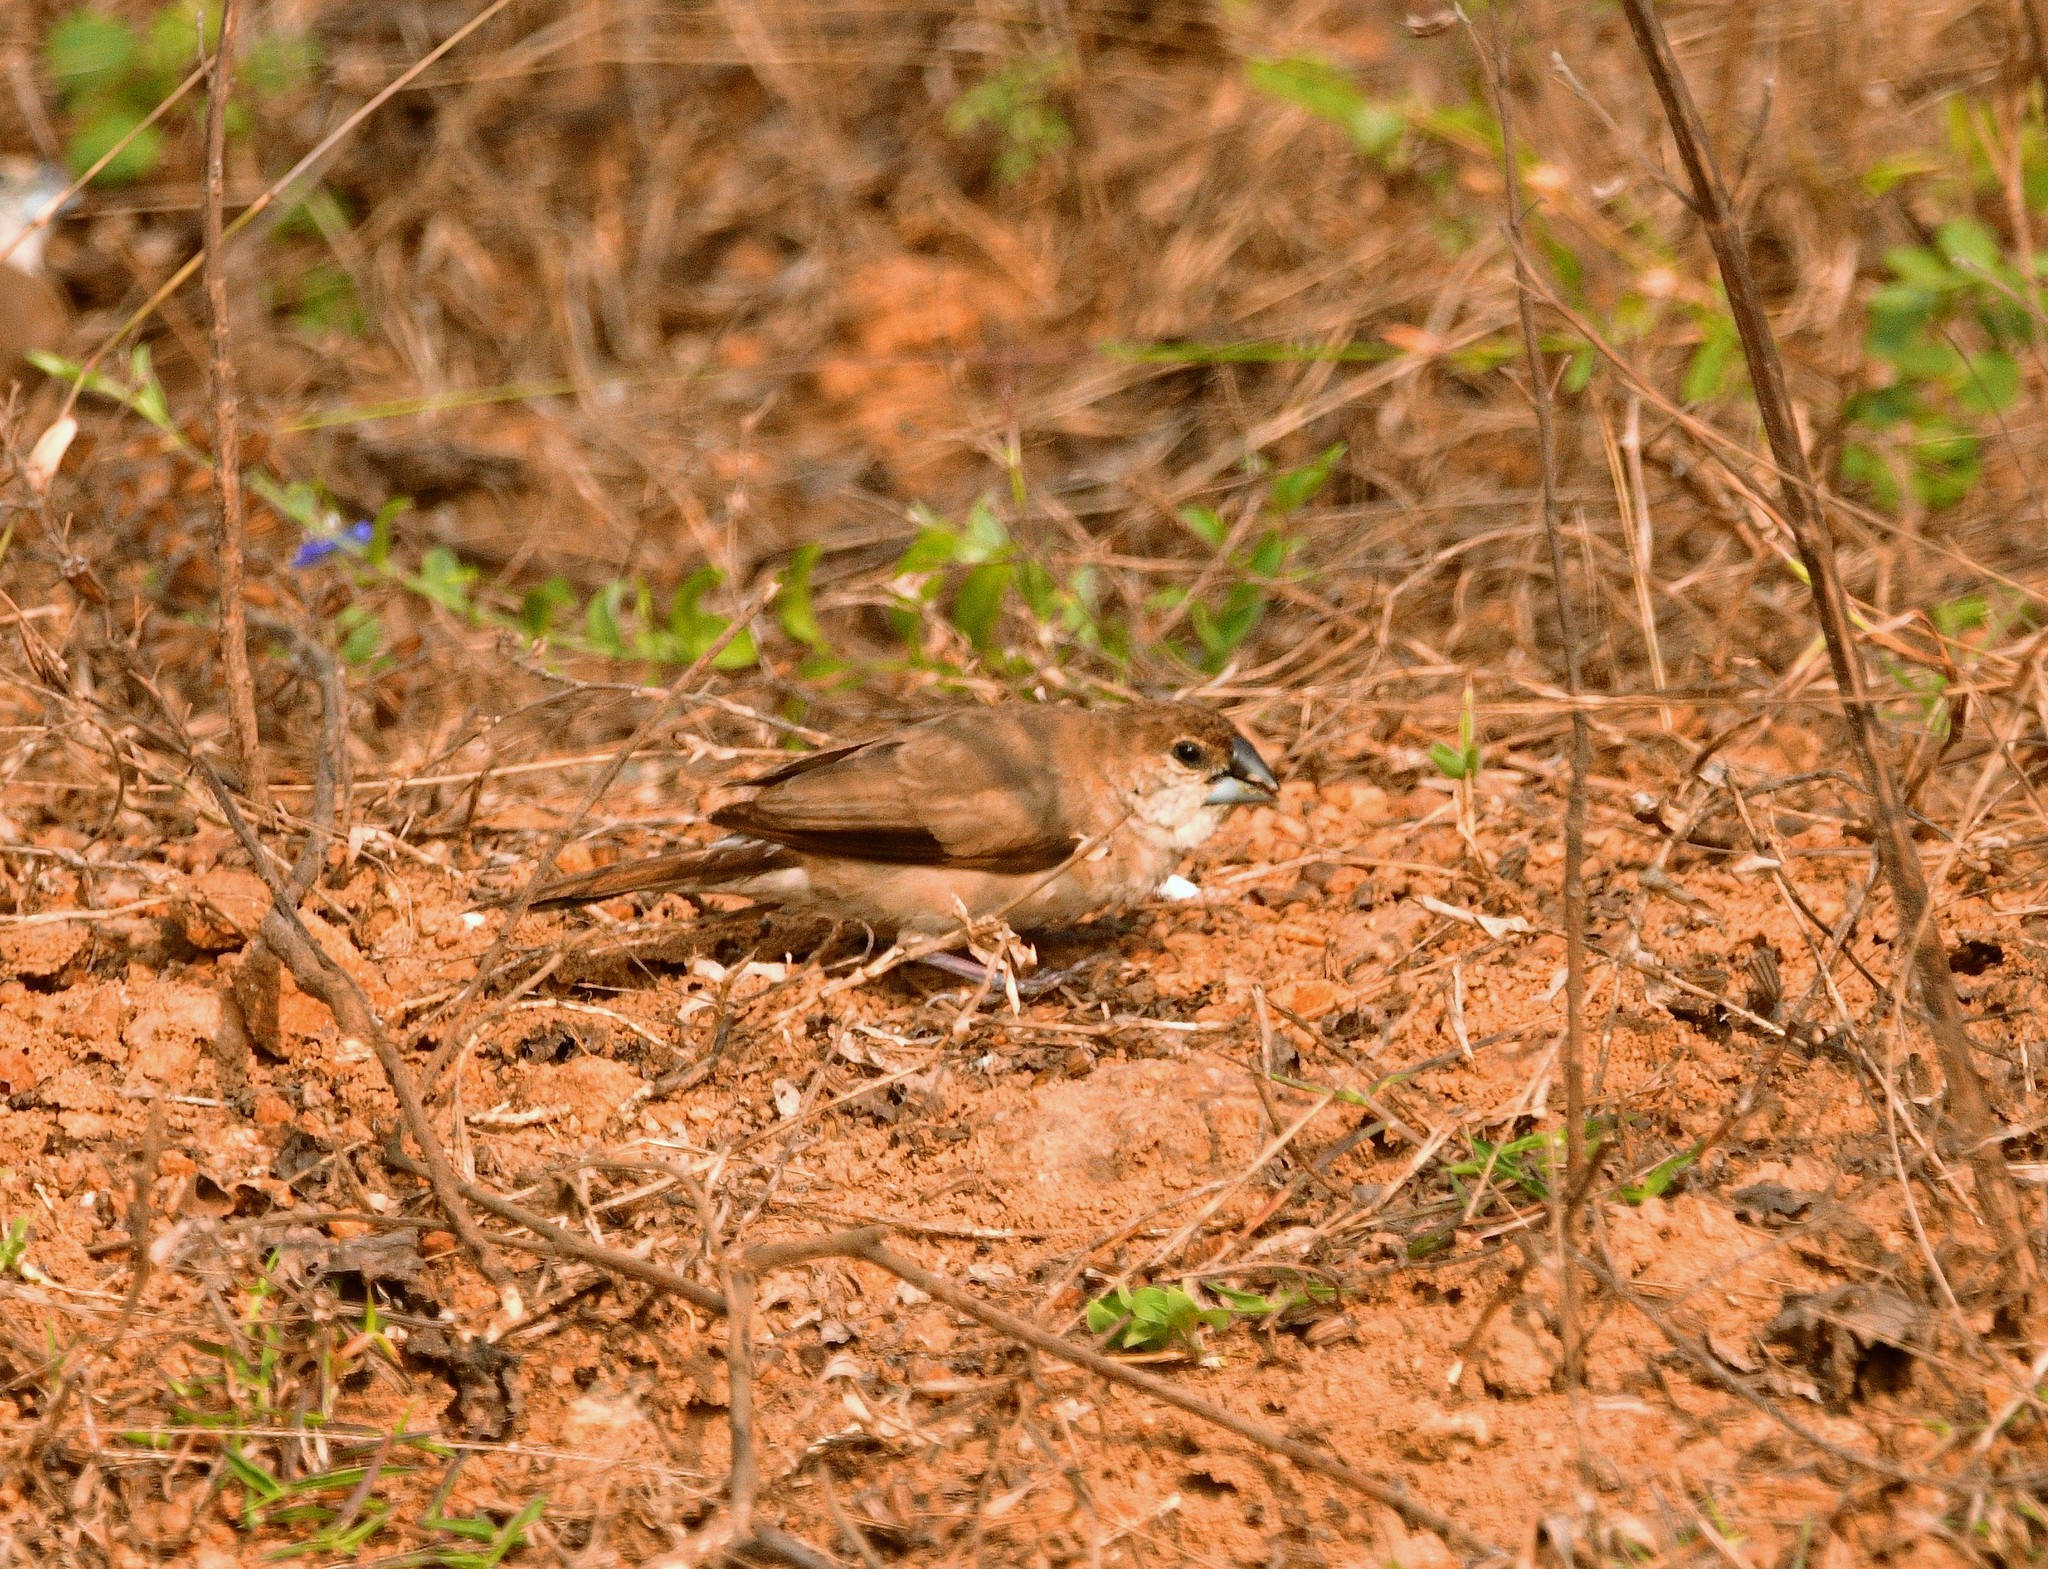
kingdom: Animalia
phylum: Chordata
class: Aves
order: Passeriformes
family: Estrildidae
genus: Euodice
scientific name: Euodice malabarica
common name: Indian silverbill
